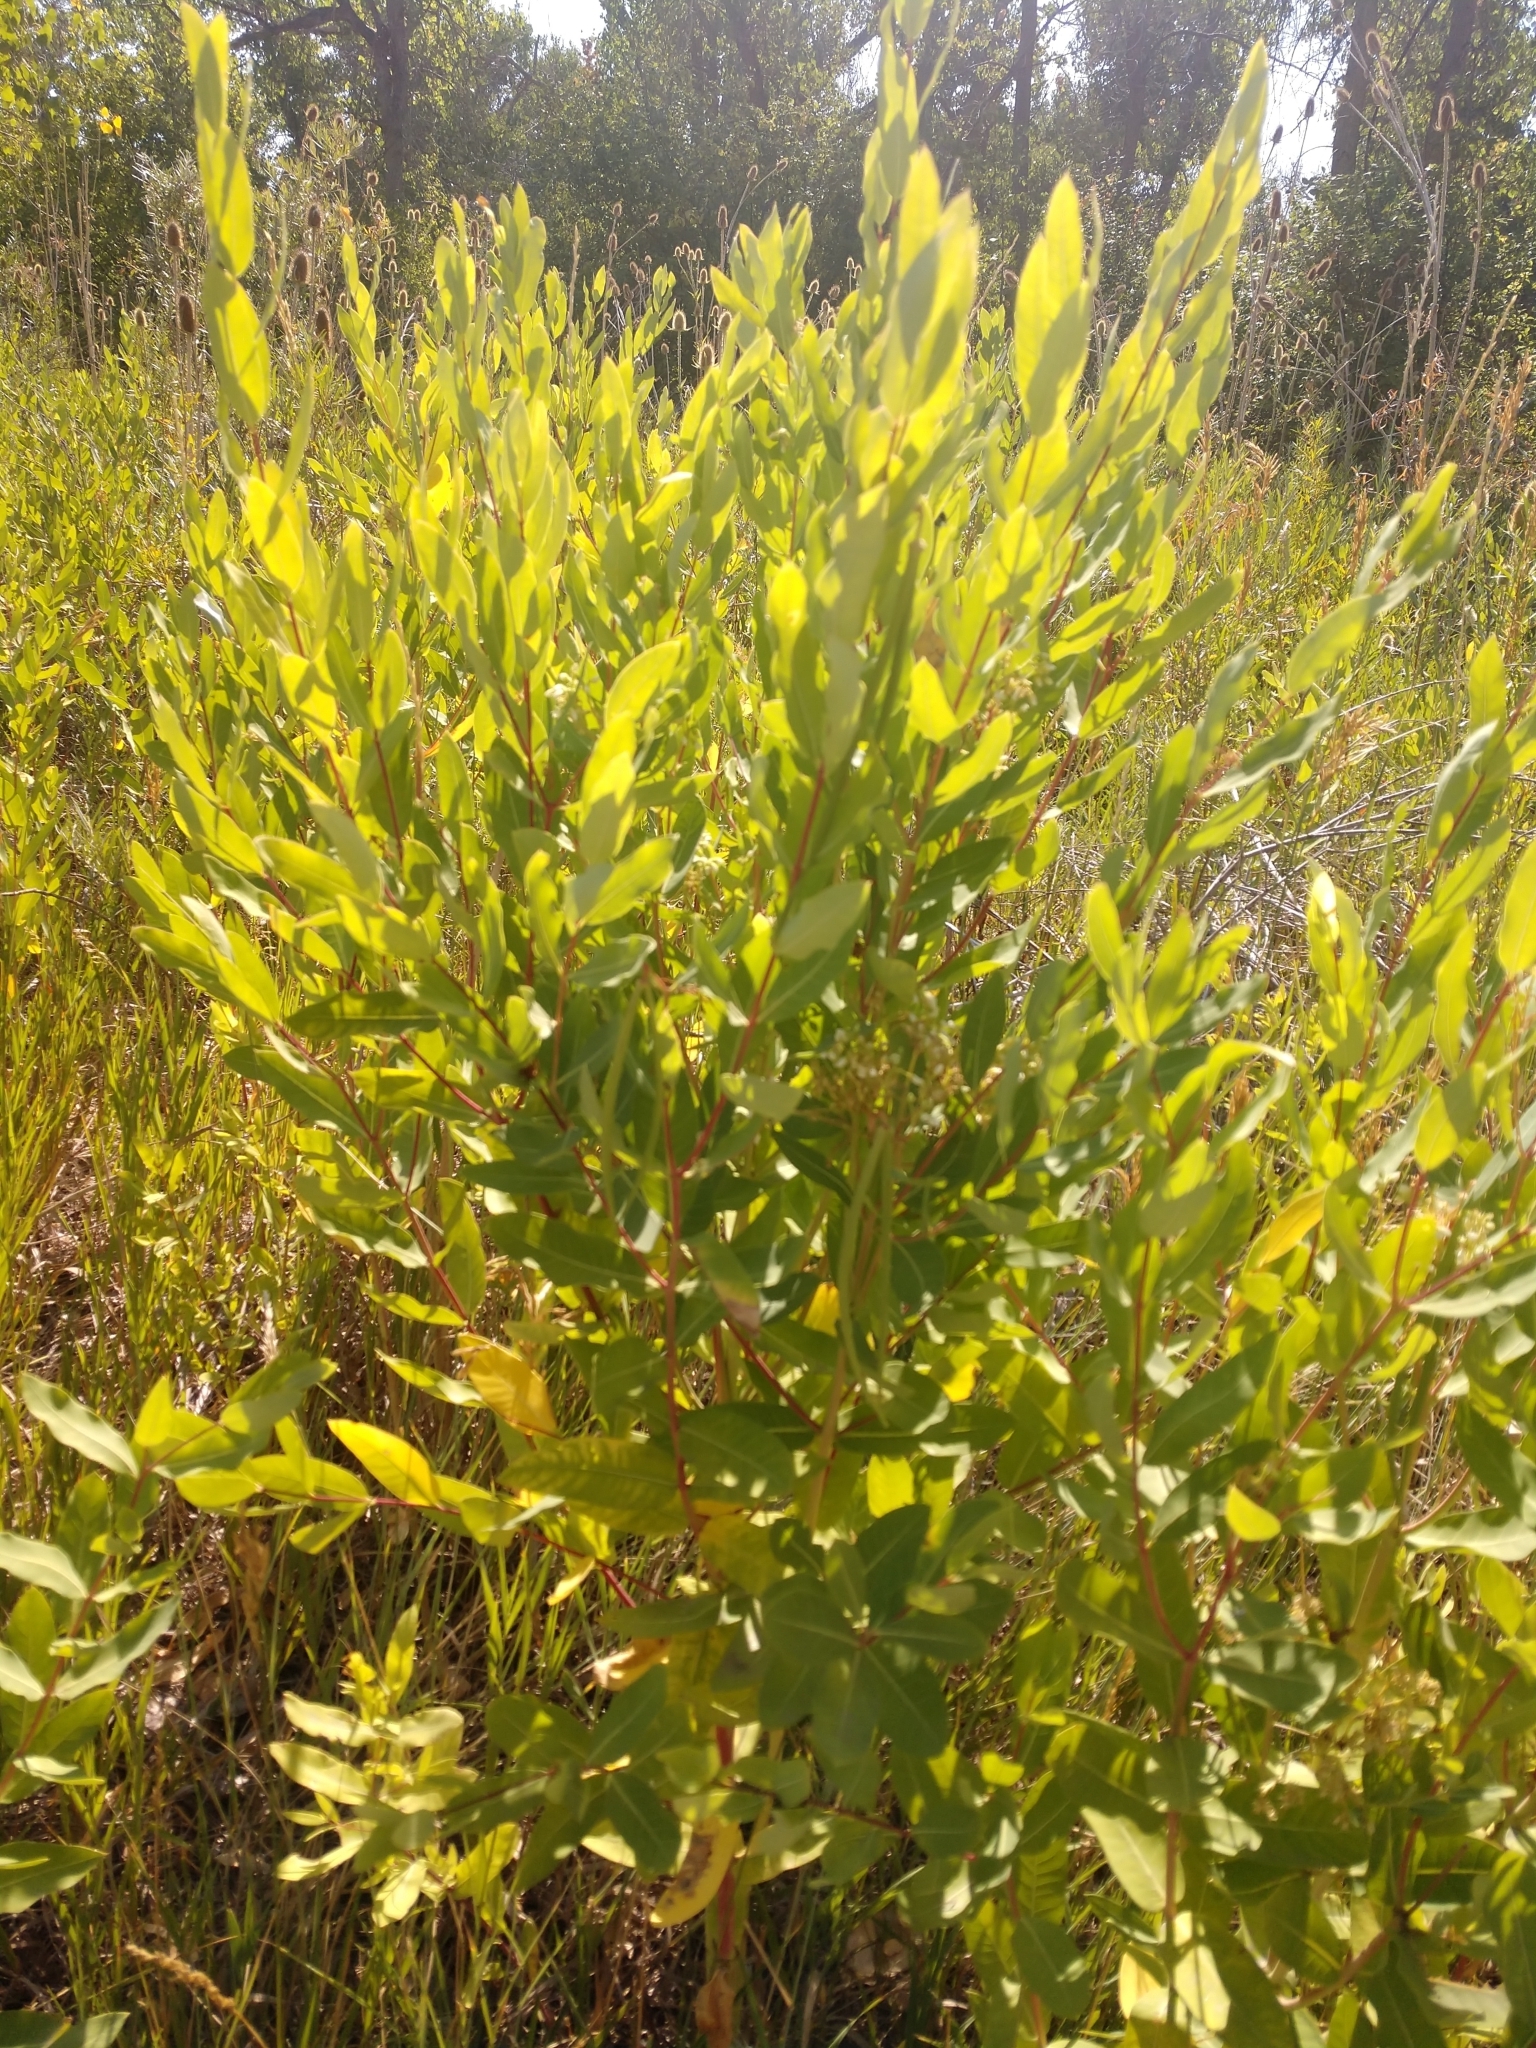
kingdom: Plantae
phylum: Tracheophyta
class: Magnoliopsida
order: Gentianales
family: Apocynaceae
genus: Apocynum
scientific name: Apocynum cannabinum
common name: Hemp dogbane
